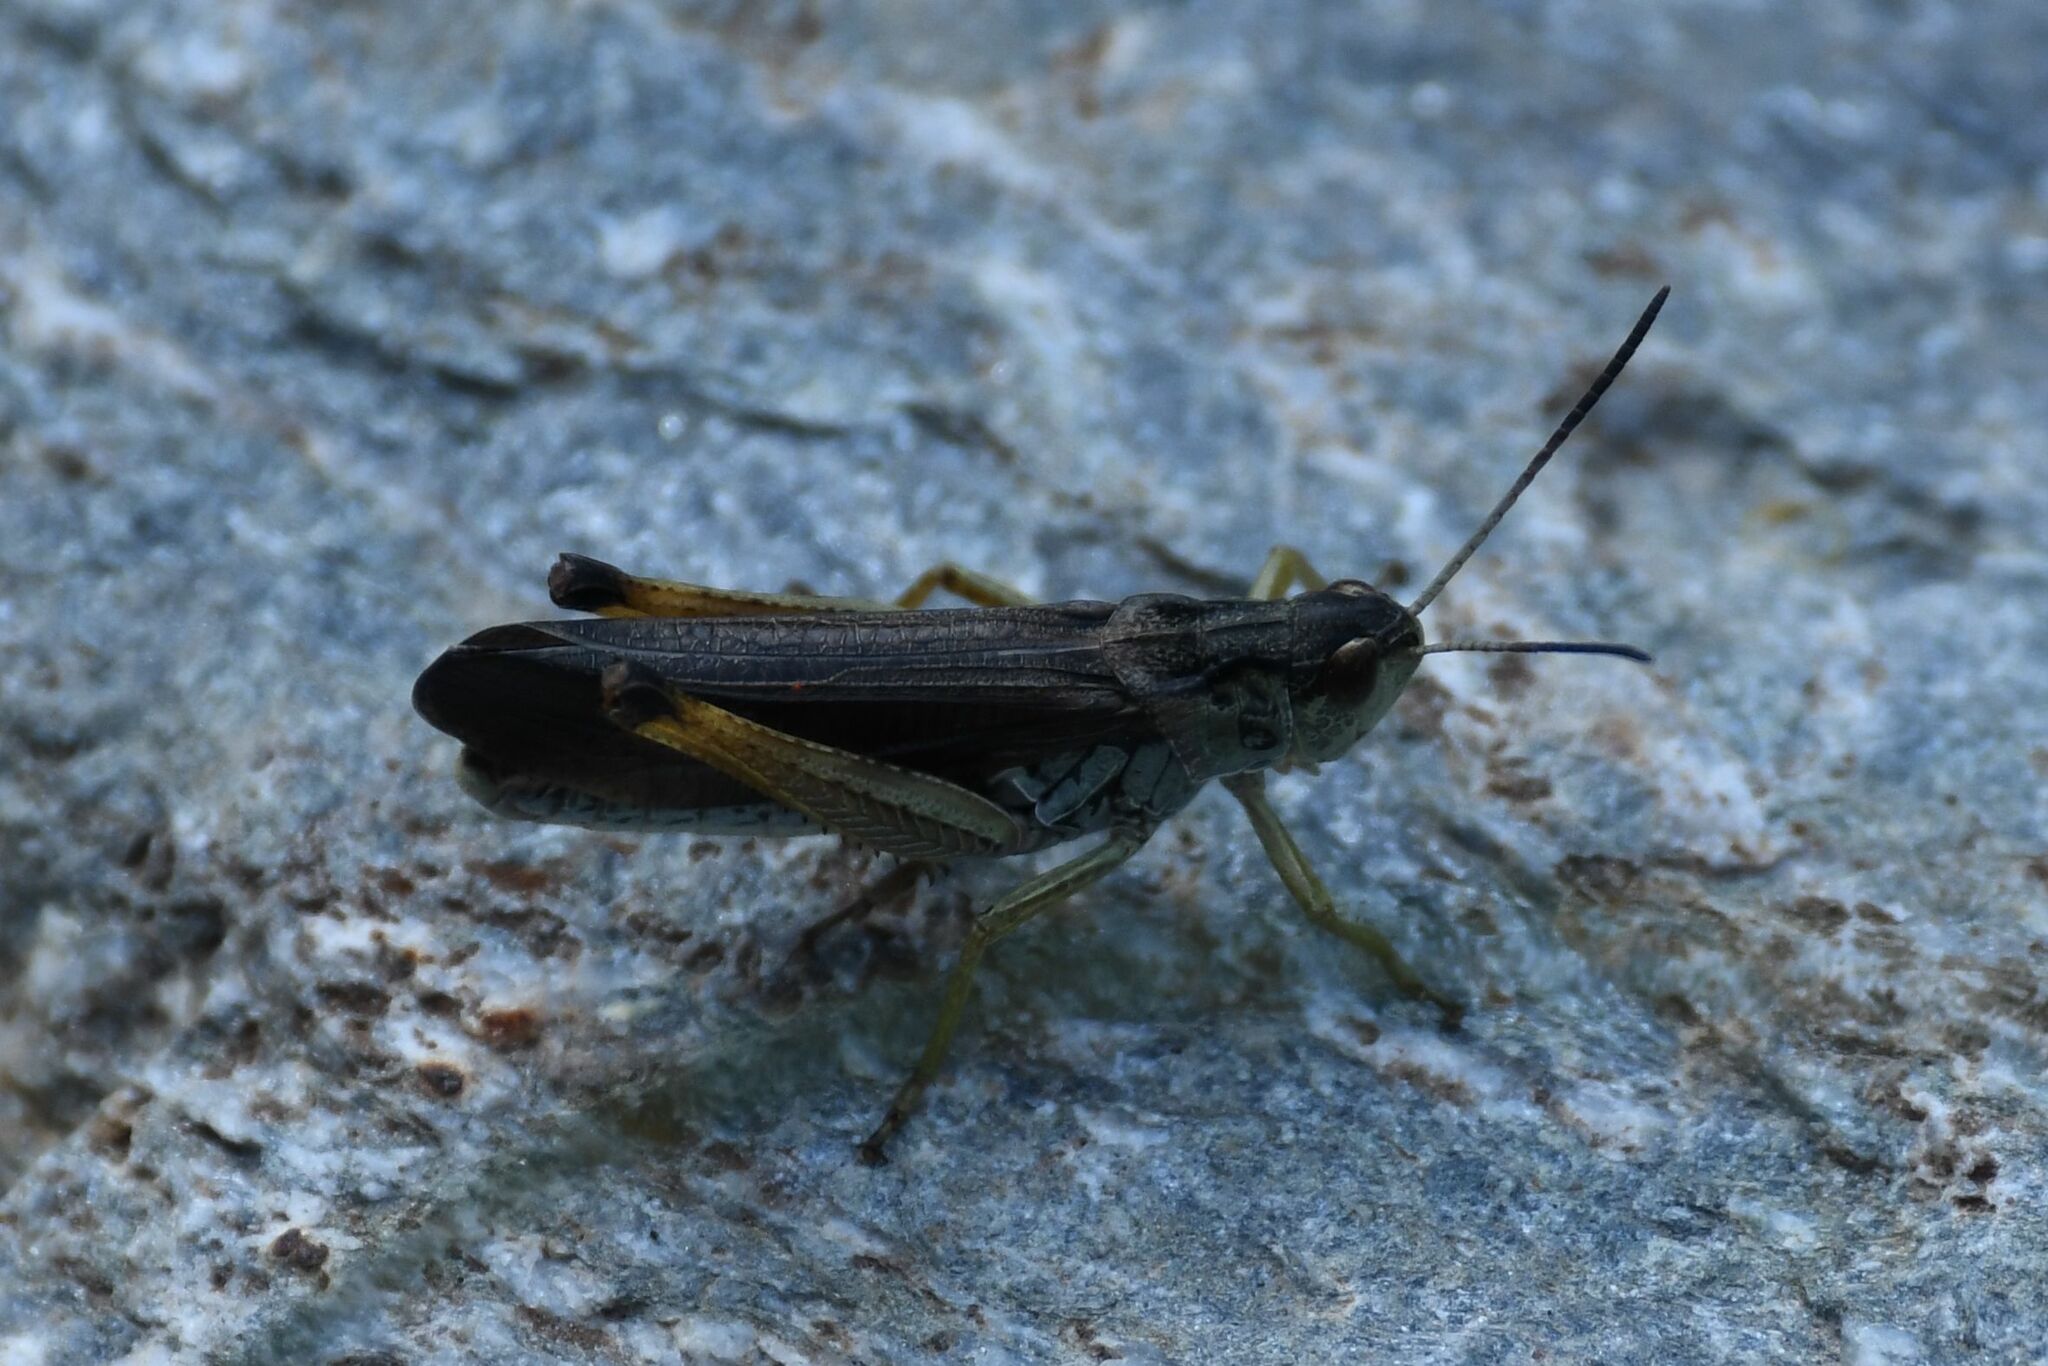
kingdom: Animalia
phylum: Arthropoda
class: Insecta
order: Orthoptera
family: Acrididae
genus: Stauroderus
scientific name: Stauroderus scalaris
